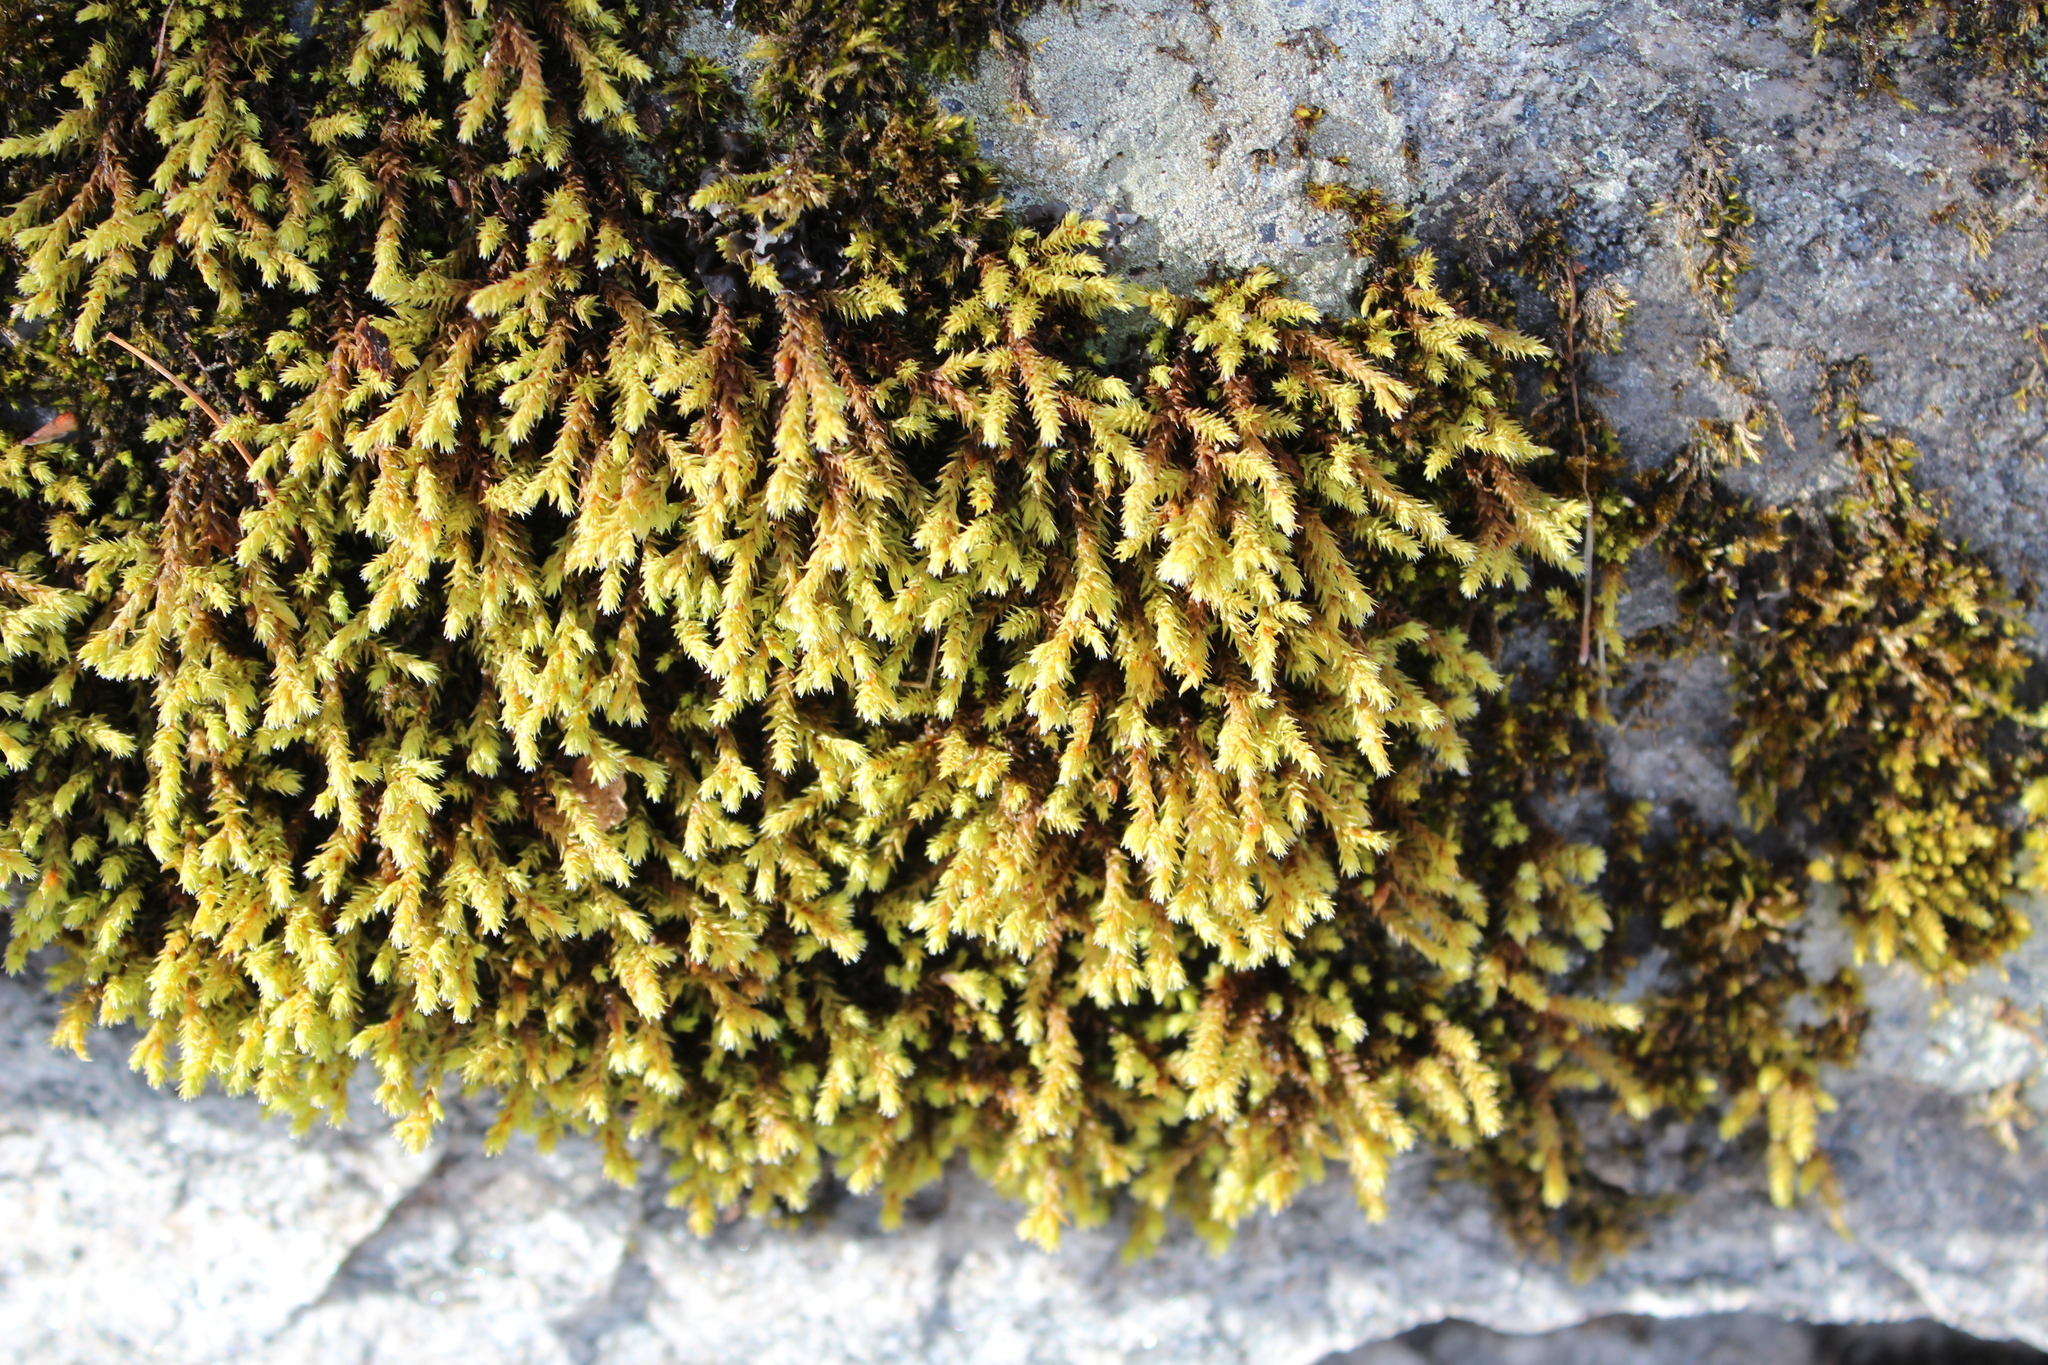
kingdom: Plantae
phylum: Bryophyta
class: Bryopsida
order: Hedwigiales
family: Hedwigiaceae
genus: Hedwigia
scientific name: Hedwigia ciliata
